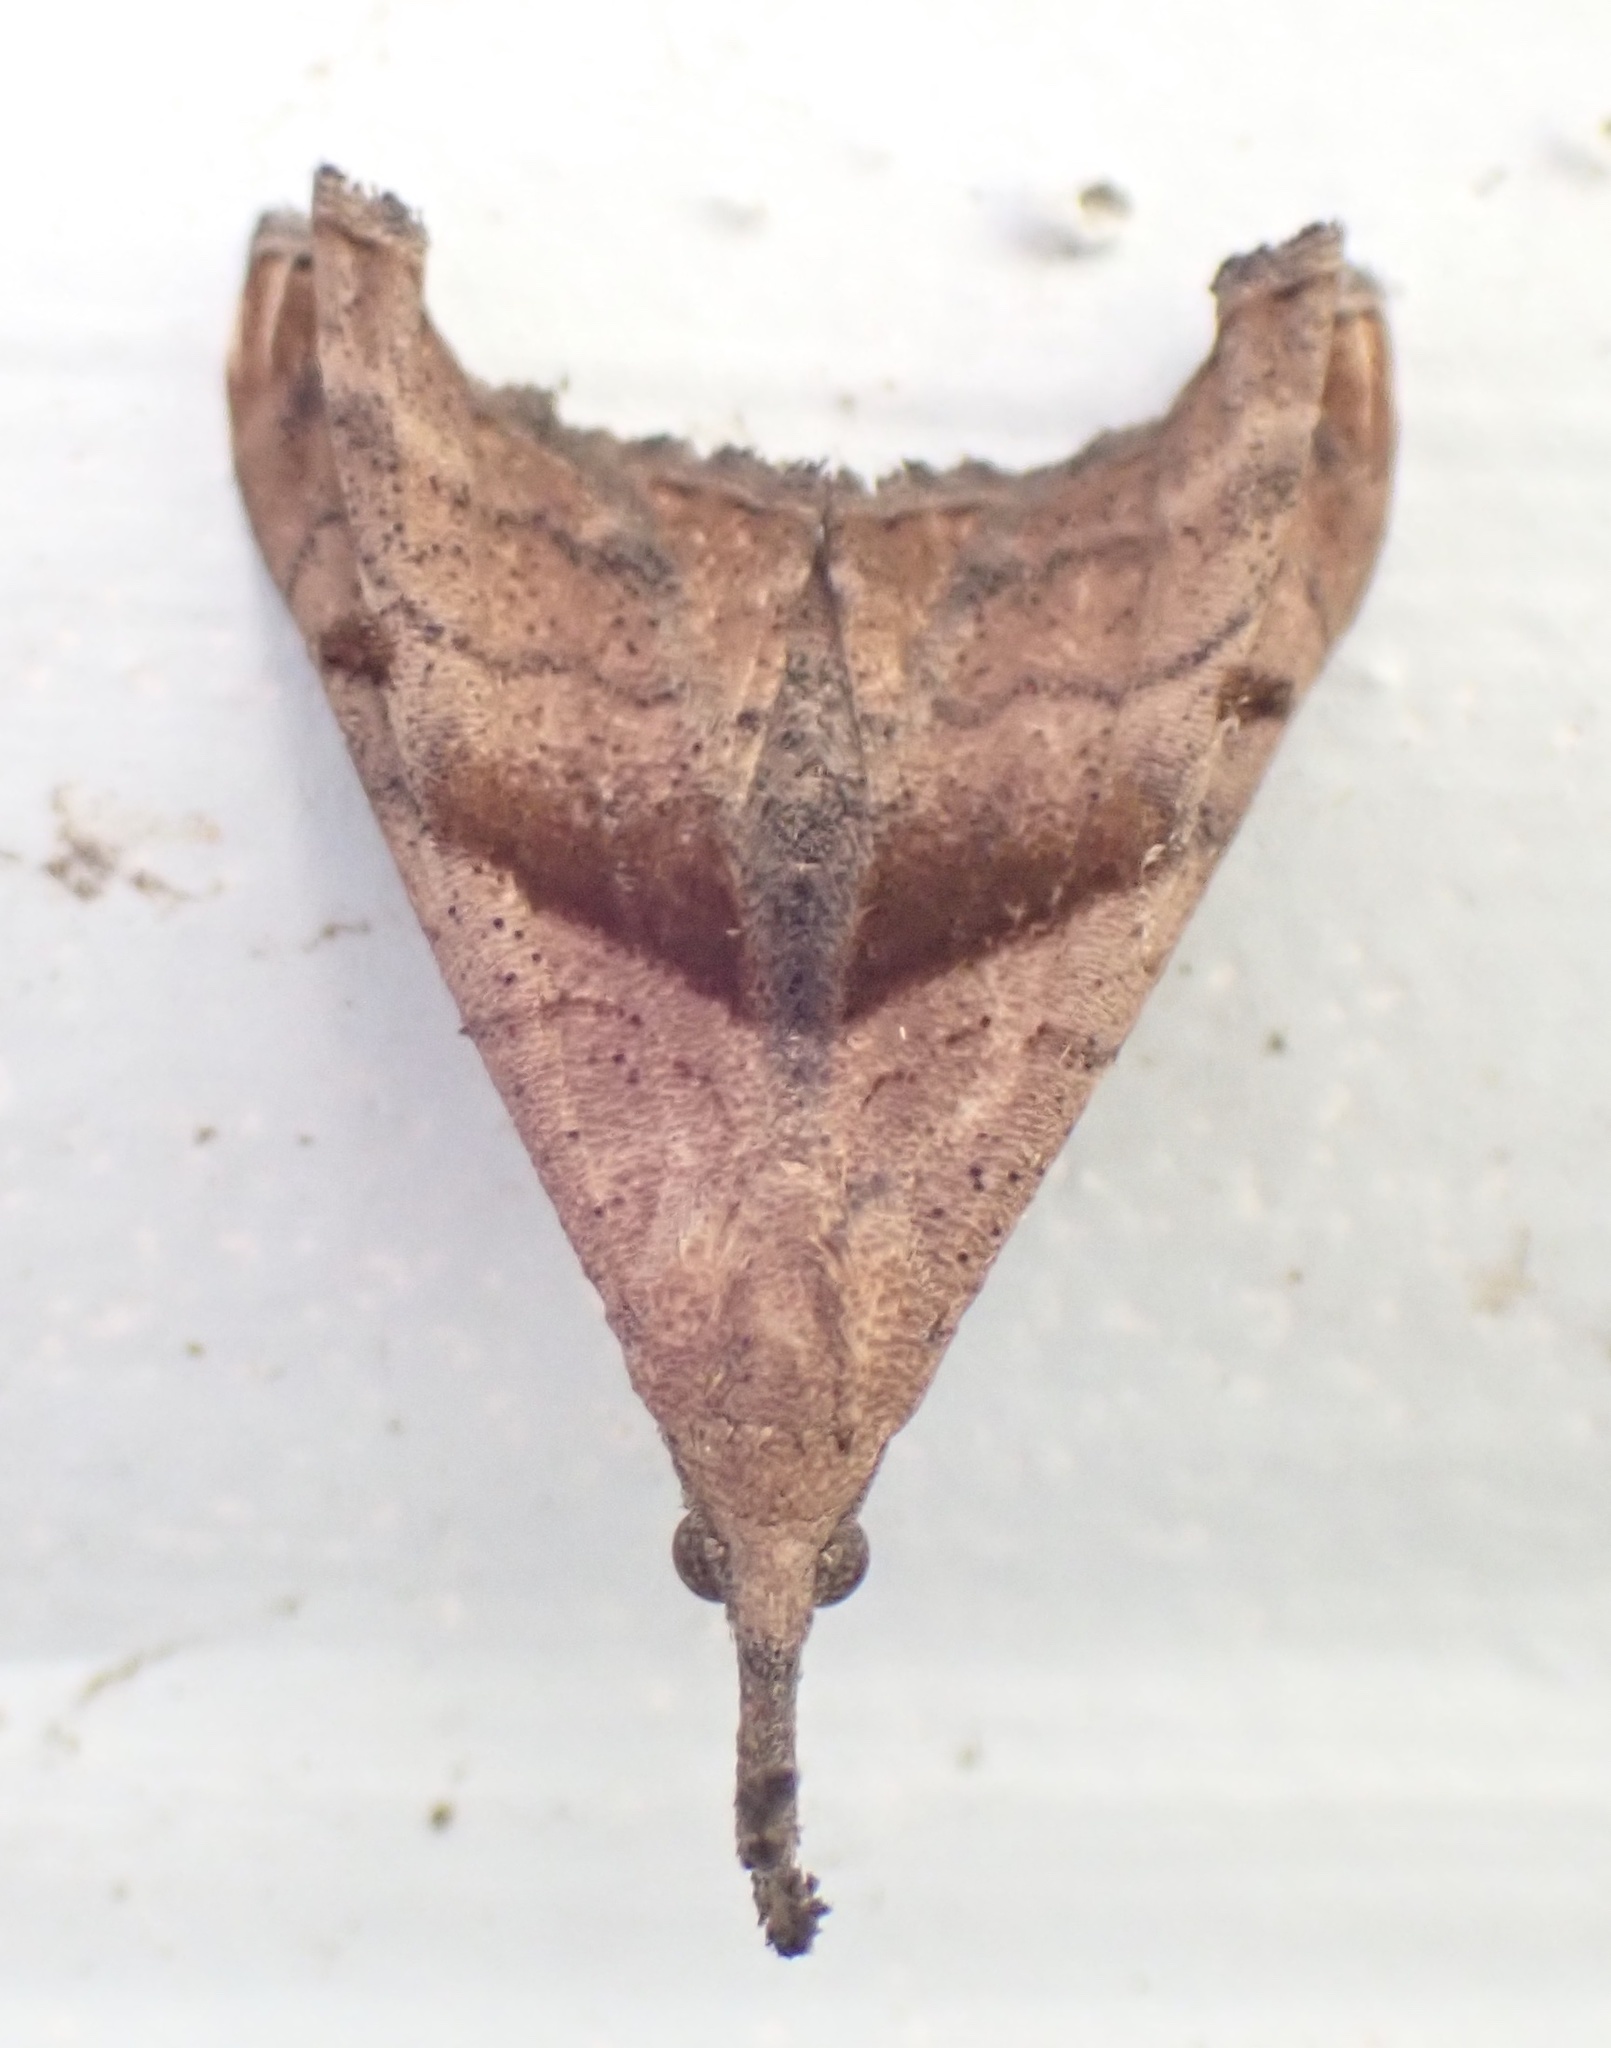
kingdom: Animalia
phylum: Arthropoda
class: Insecta
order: Lepidoptera
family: Erebidae
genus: Palthis
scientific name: Palthis angulalis
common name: Dark-spotted palthis moth
